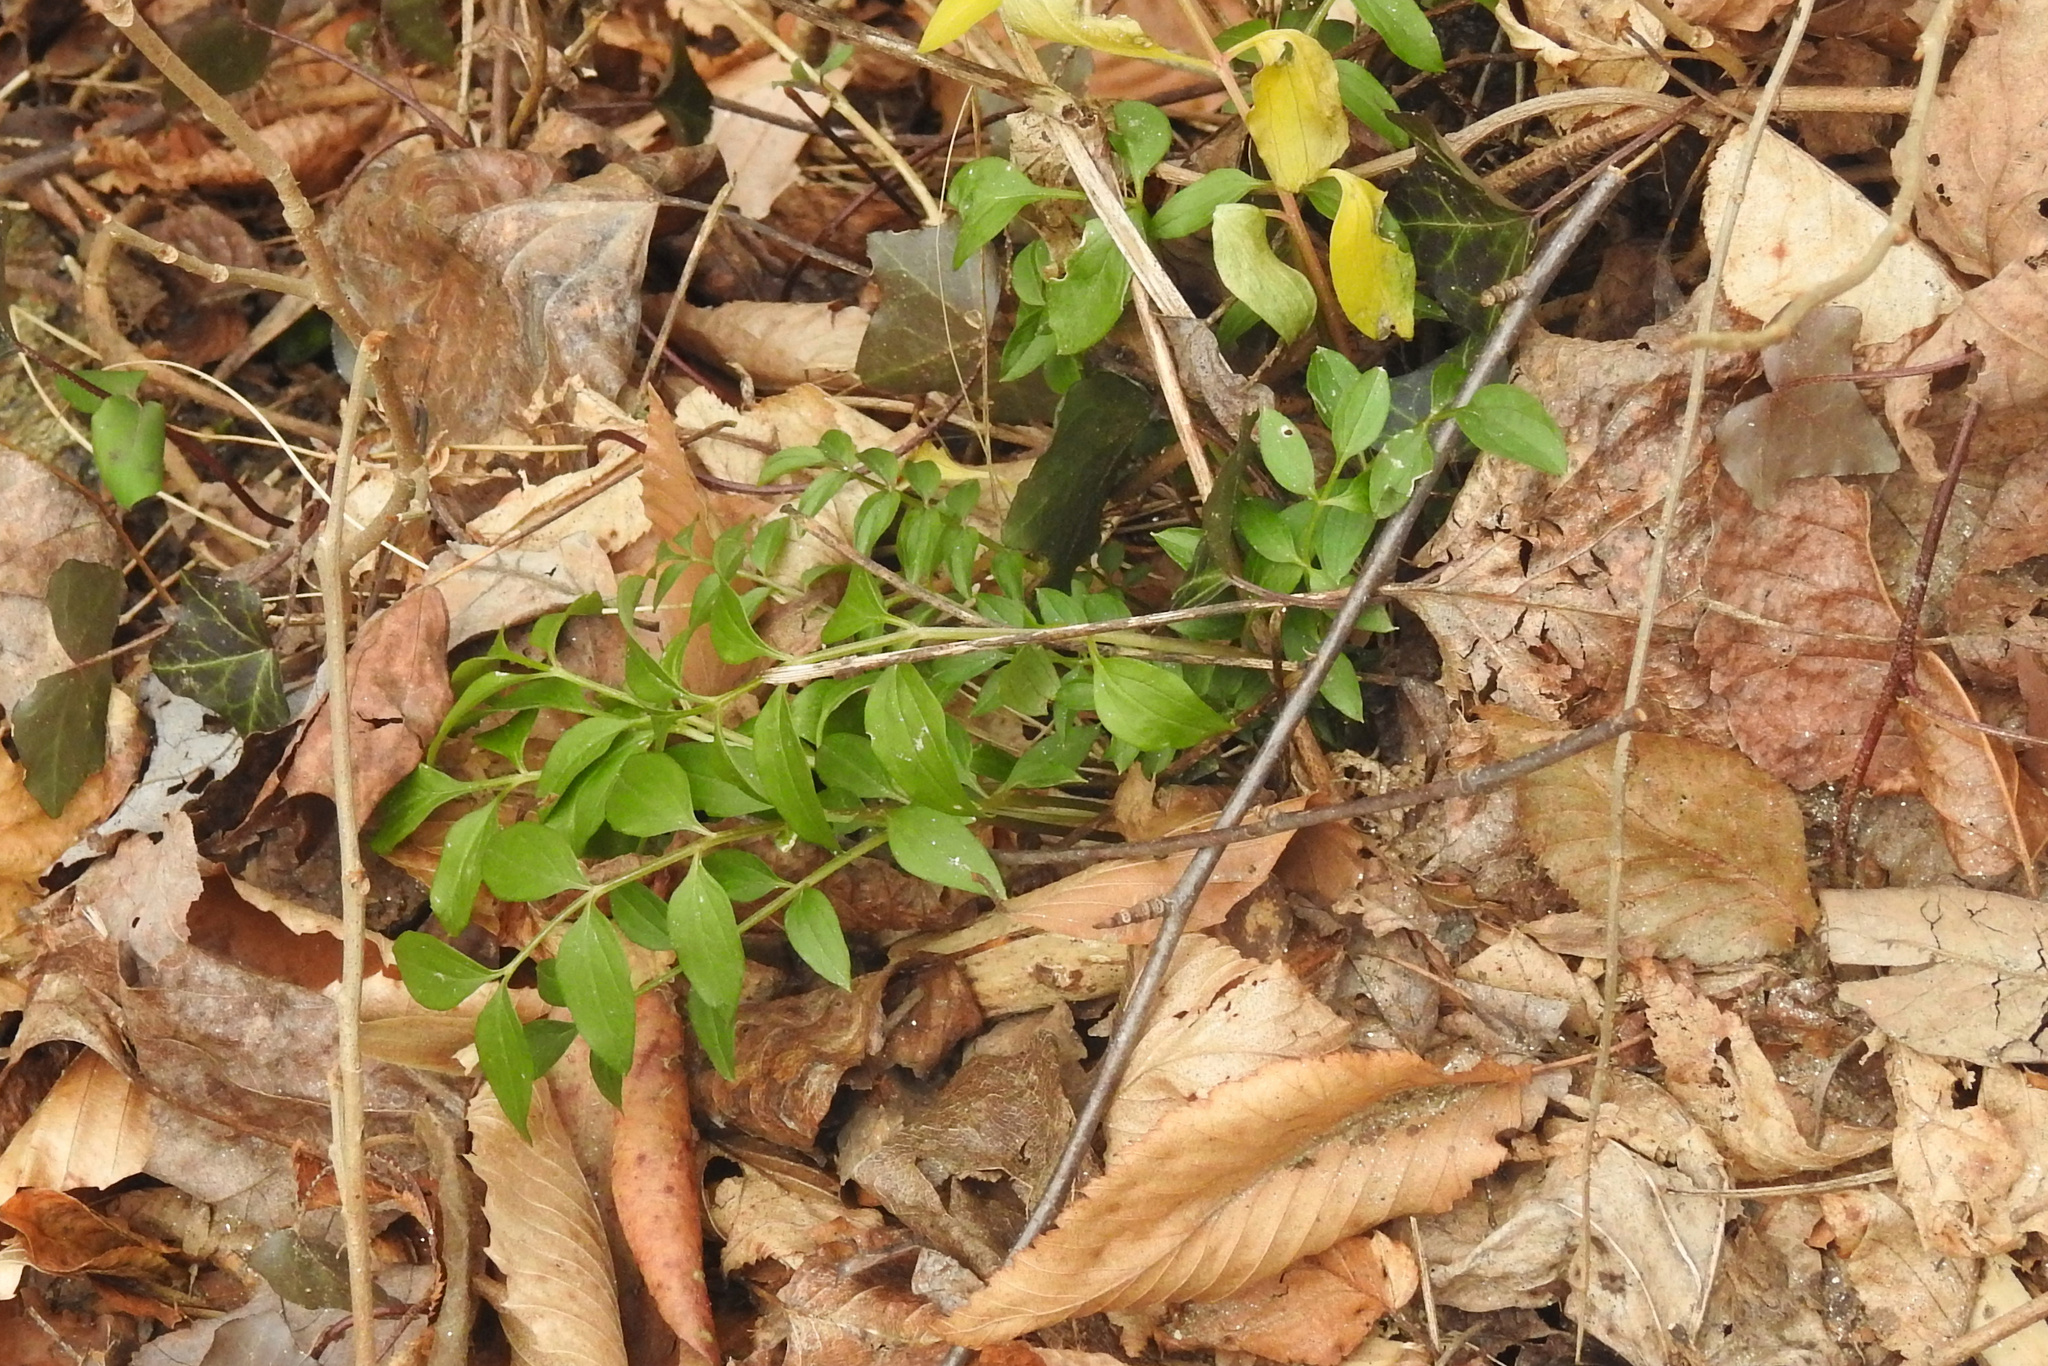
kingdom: Plantae
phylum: Tracheophyta
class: Magnoliopsida
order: Ericales
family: Polemoniaceae
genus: Polemonium
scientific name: Polemonium reptans
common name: Creeping jacob's-ladder
